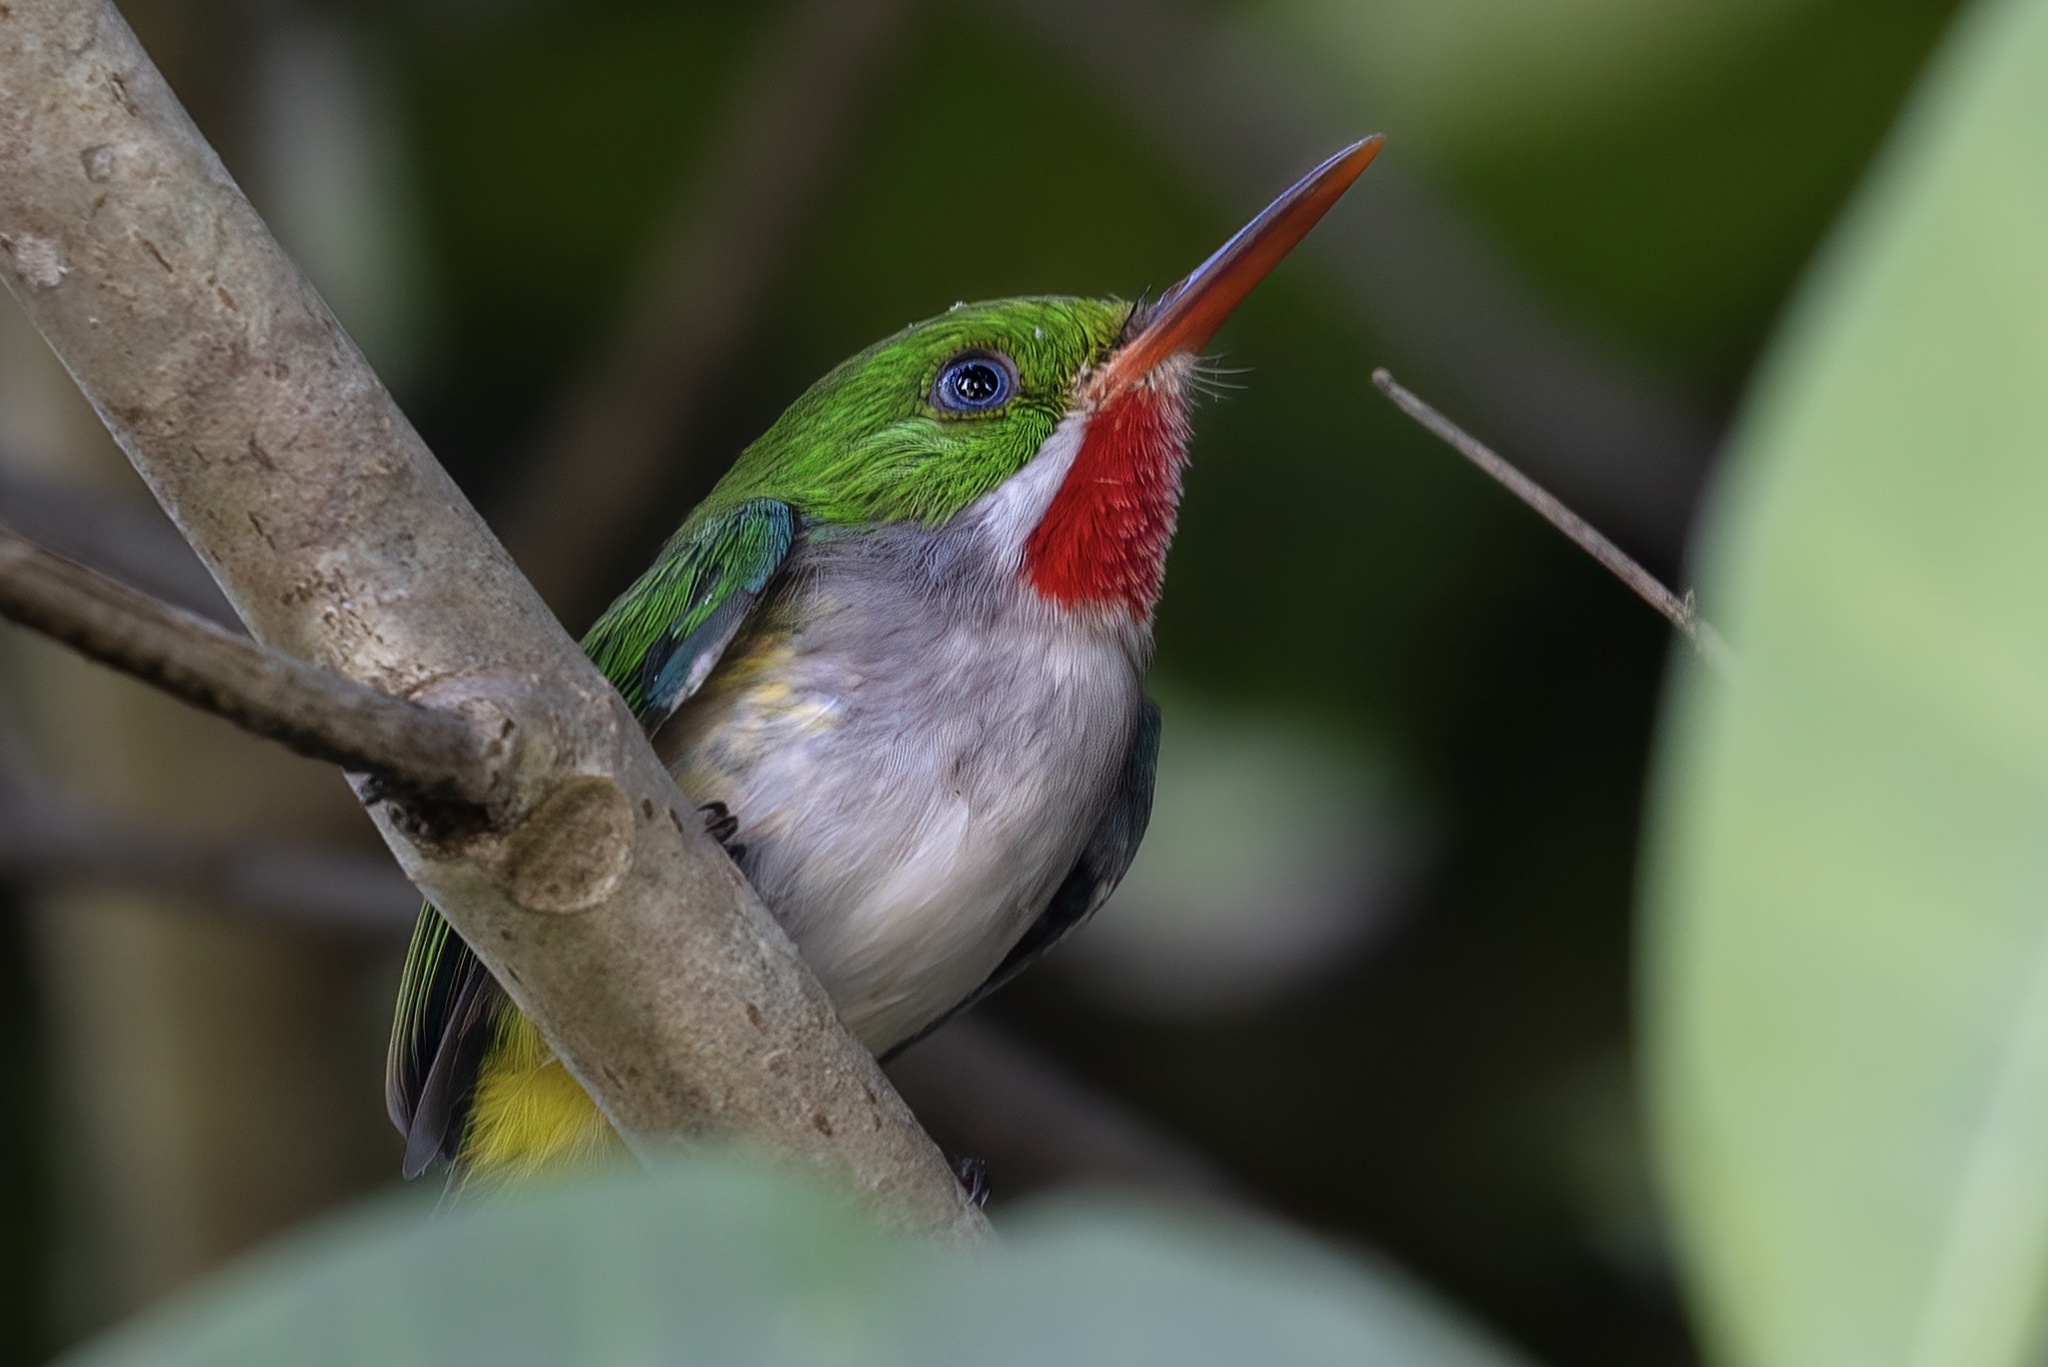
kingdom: Animalia
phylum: Chordata
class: Aves
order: Coraciiformes
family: Todidae
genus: Todus
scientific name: Todus mexicanus
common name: Puerto rican tody
